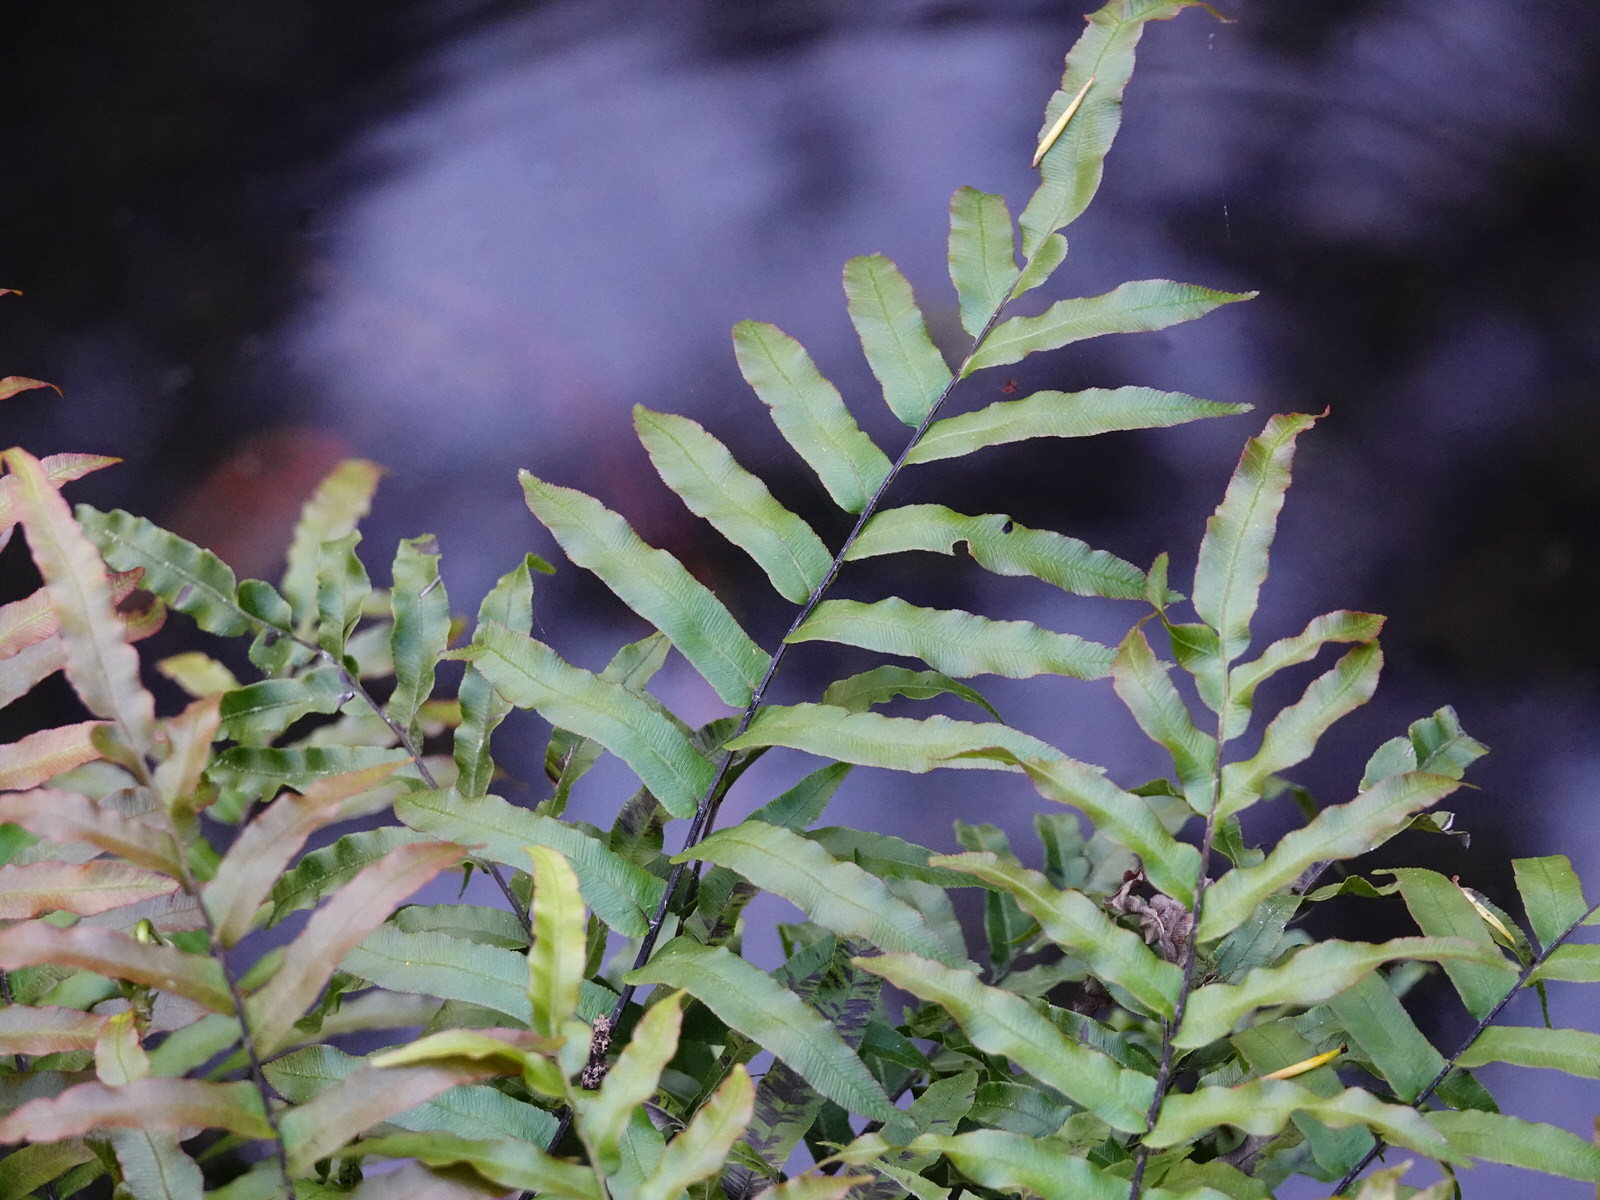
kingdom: Plantae
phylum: Tracheophyta
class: Polypodiopsida
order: Polypodiales
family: Blechnaceae
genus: Parablechnum
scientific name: Parablechnum minus
